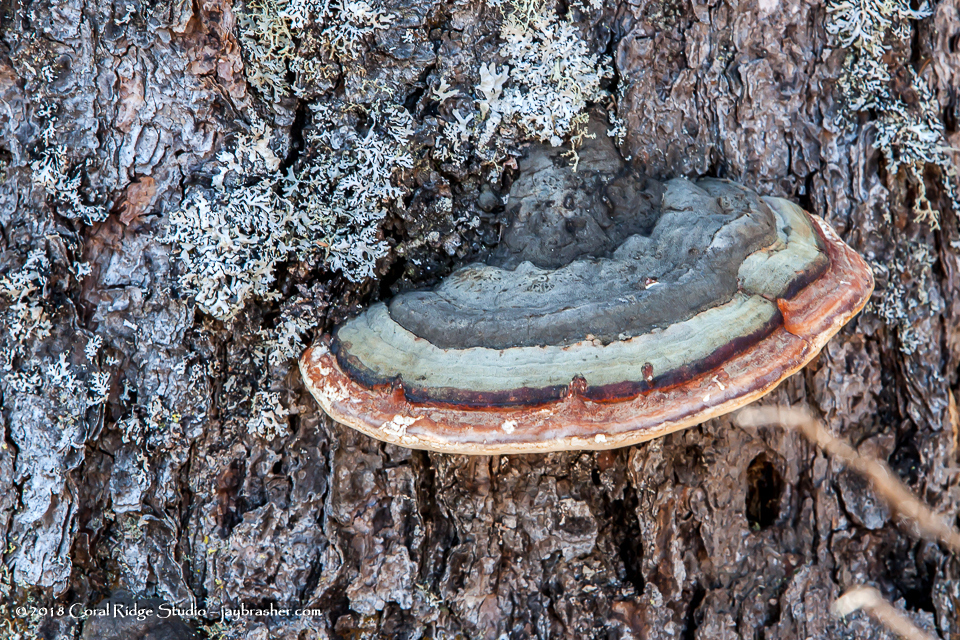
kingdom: Fungi
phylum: Basidiomycota
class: Agaricomycetes
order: Polyporales
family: Fomitopsidaceae
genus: Fomitopsis
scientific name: Fomitopsis mounceae
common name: Northern red belt
